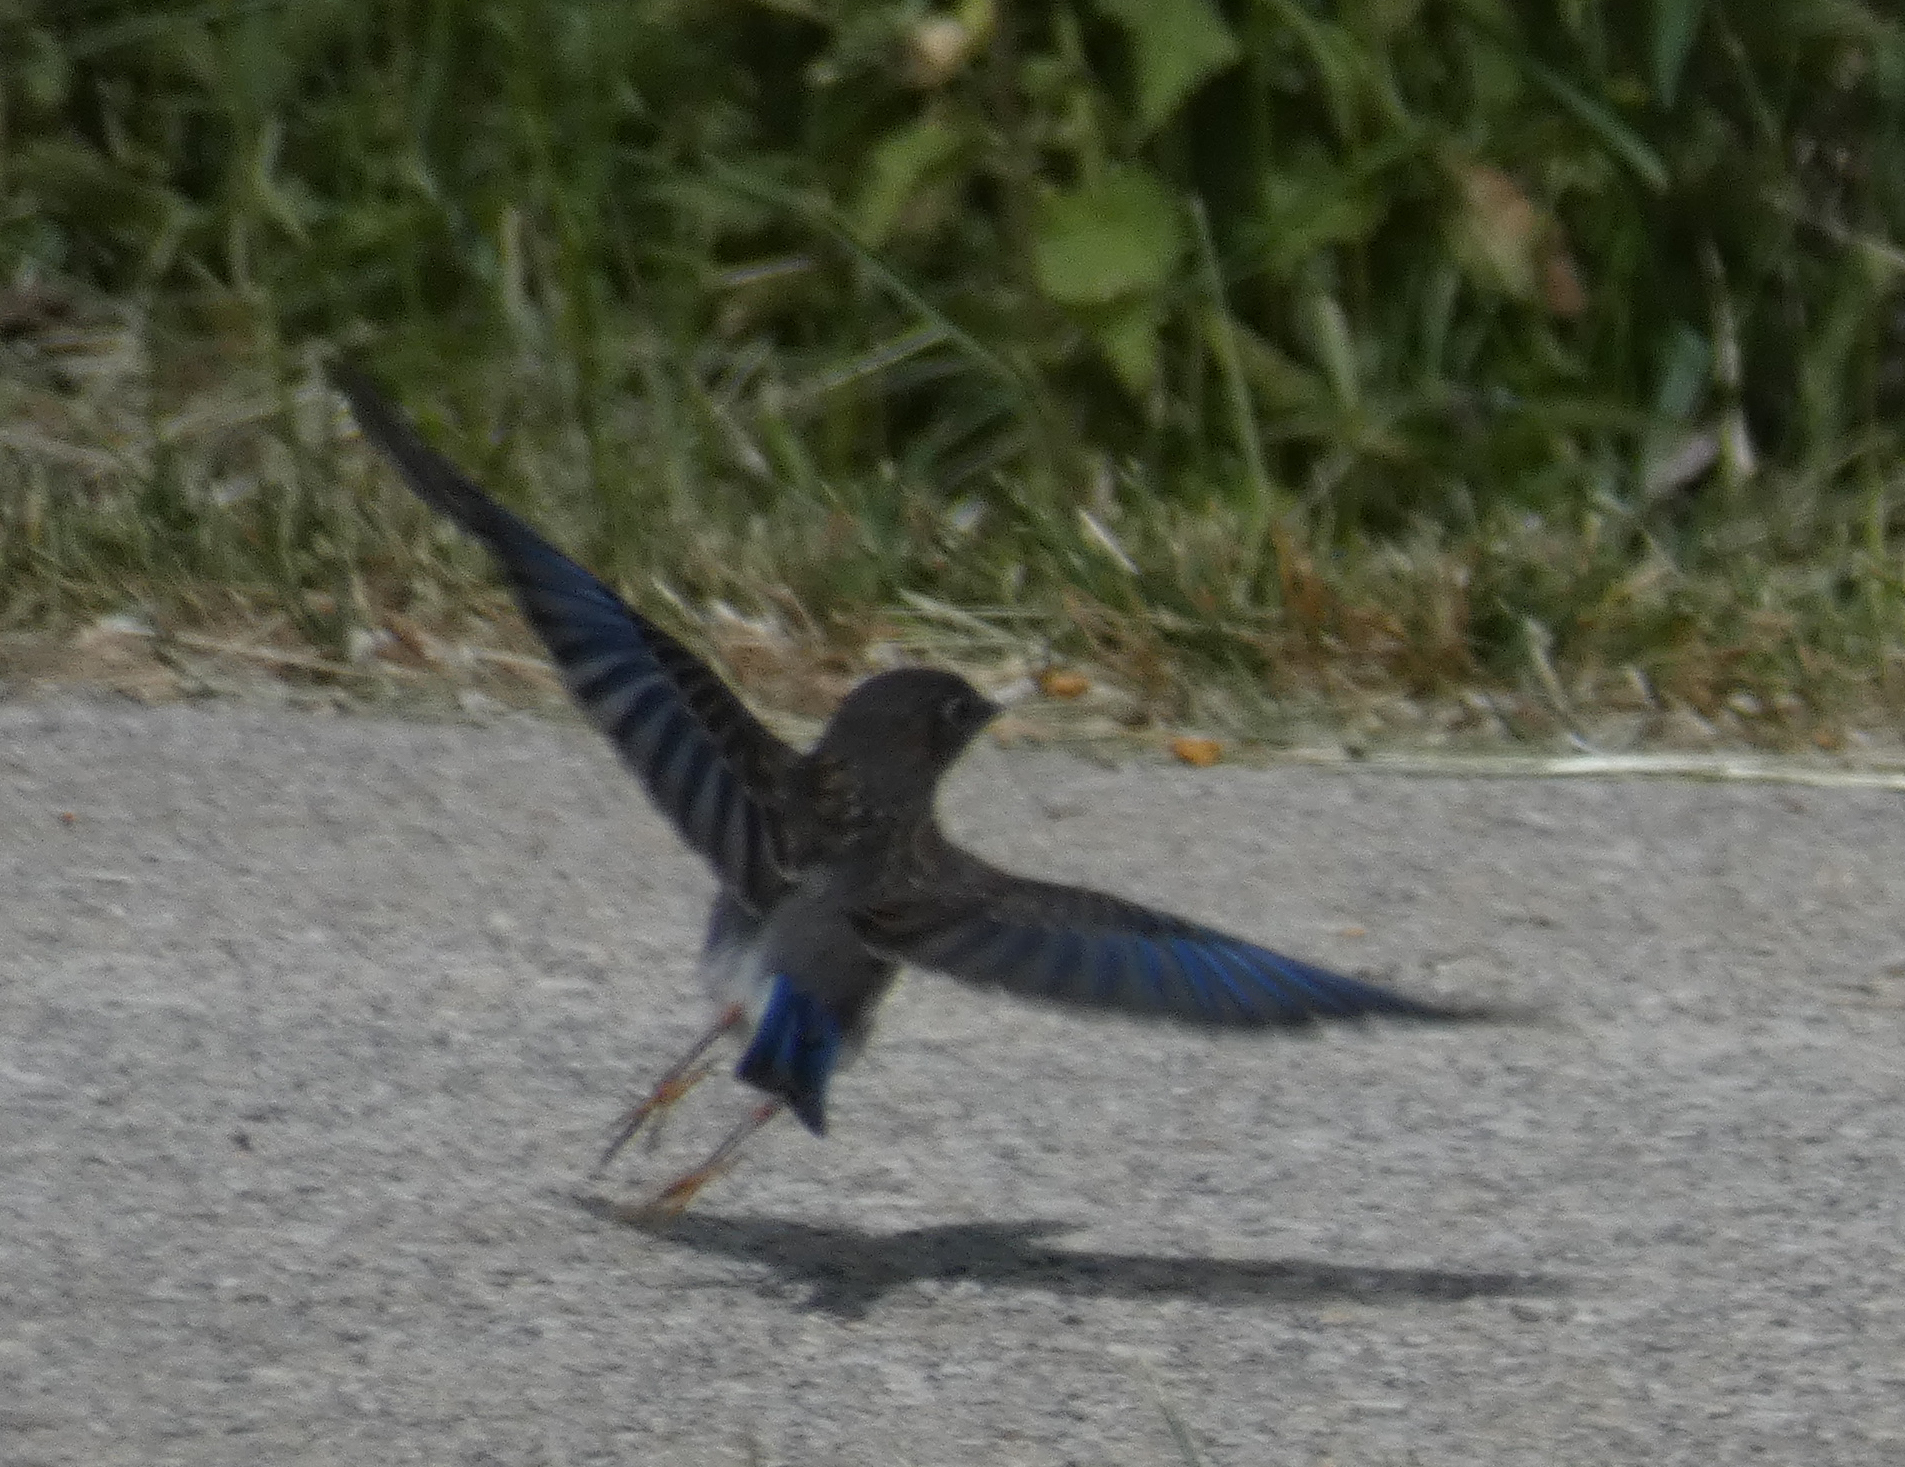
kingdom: Animalia
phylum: Chordata
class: Aves
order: Passeriformes
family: Turdidae
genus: Sialia
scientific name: Sialia sialis
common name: Eastern bluebird
